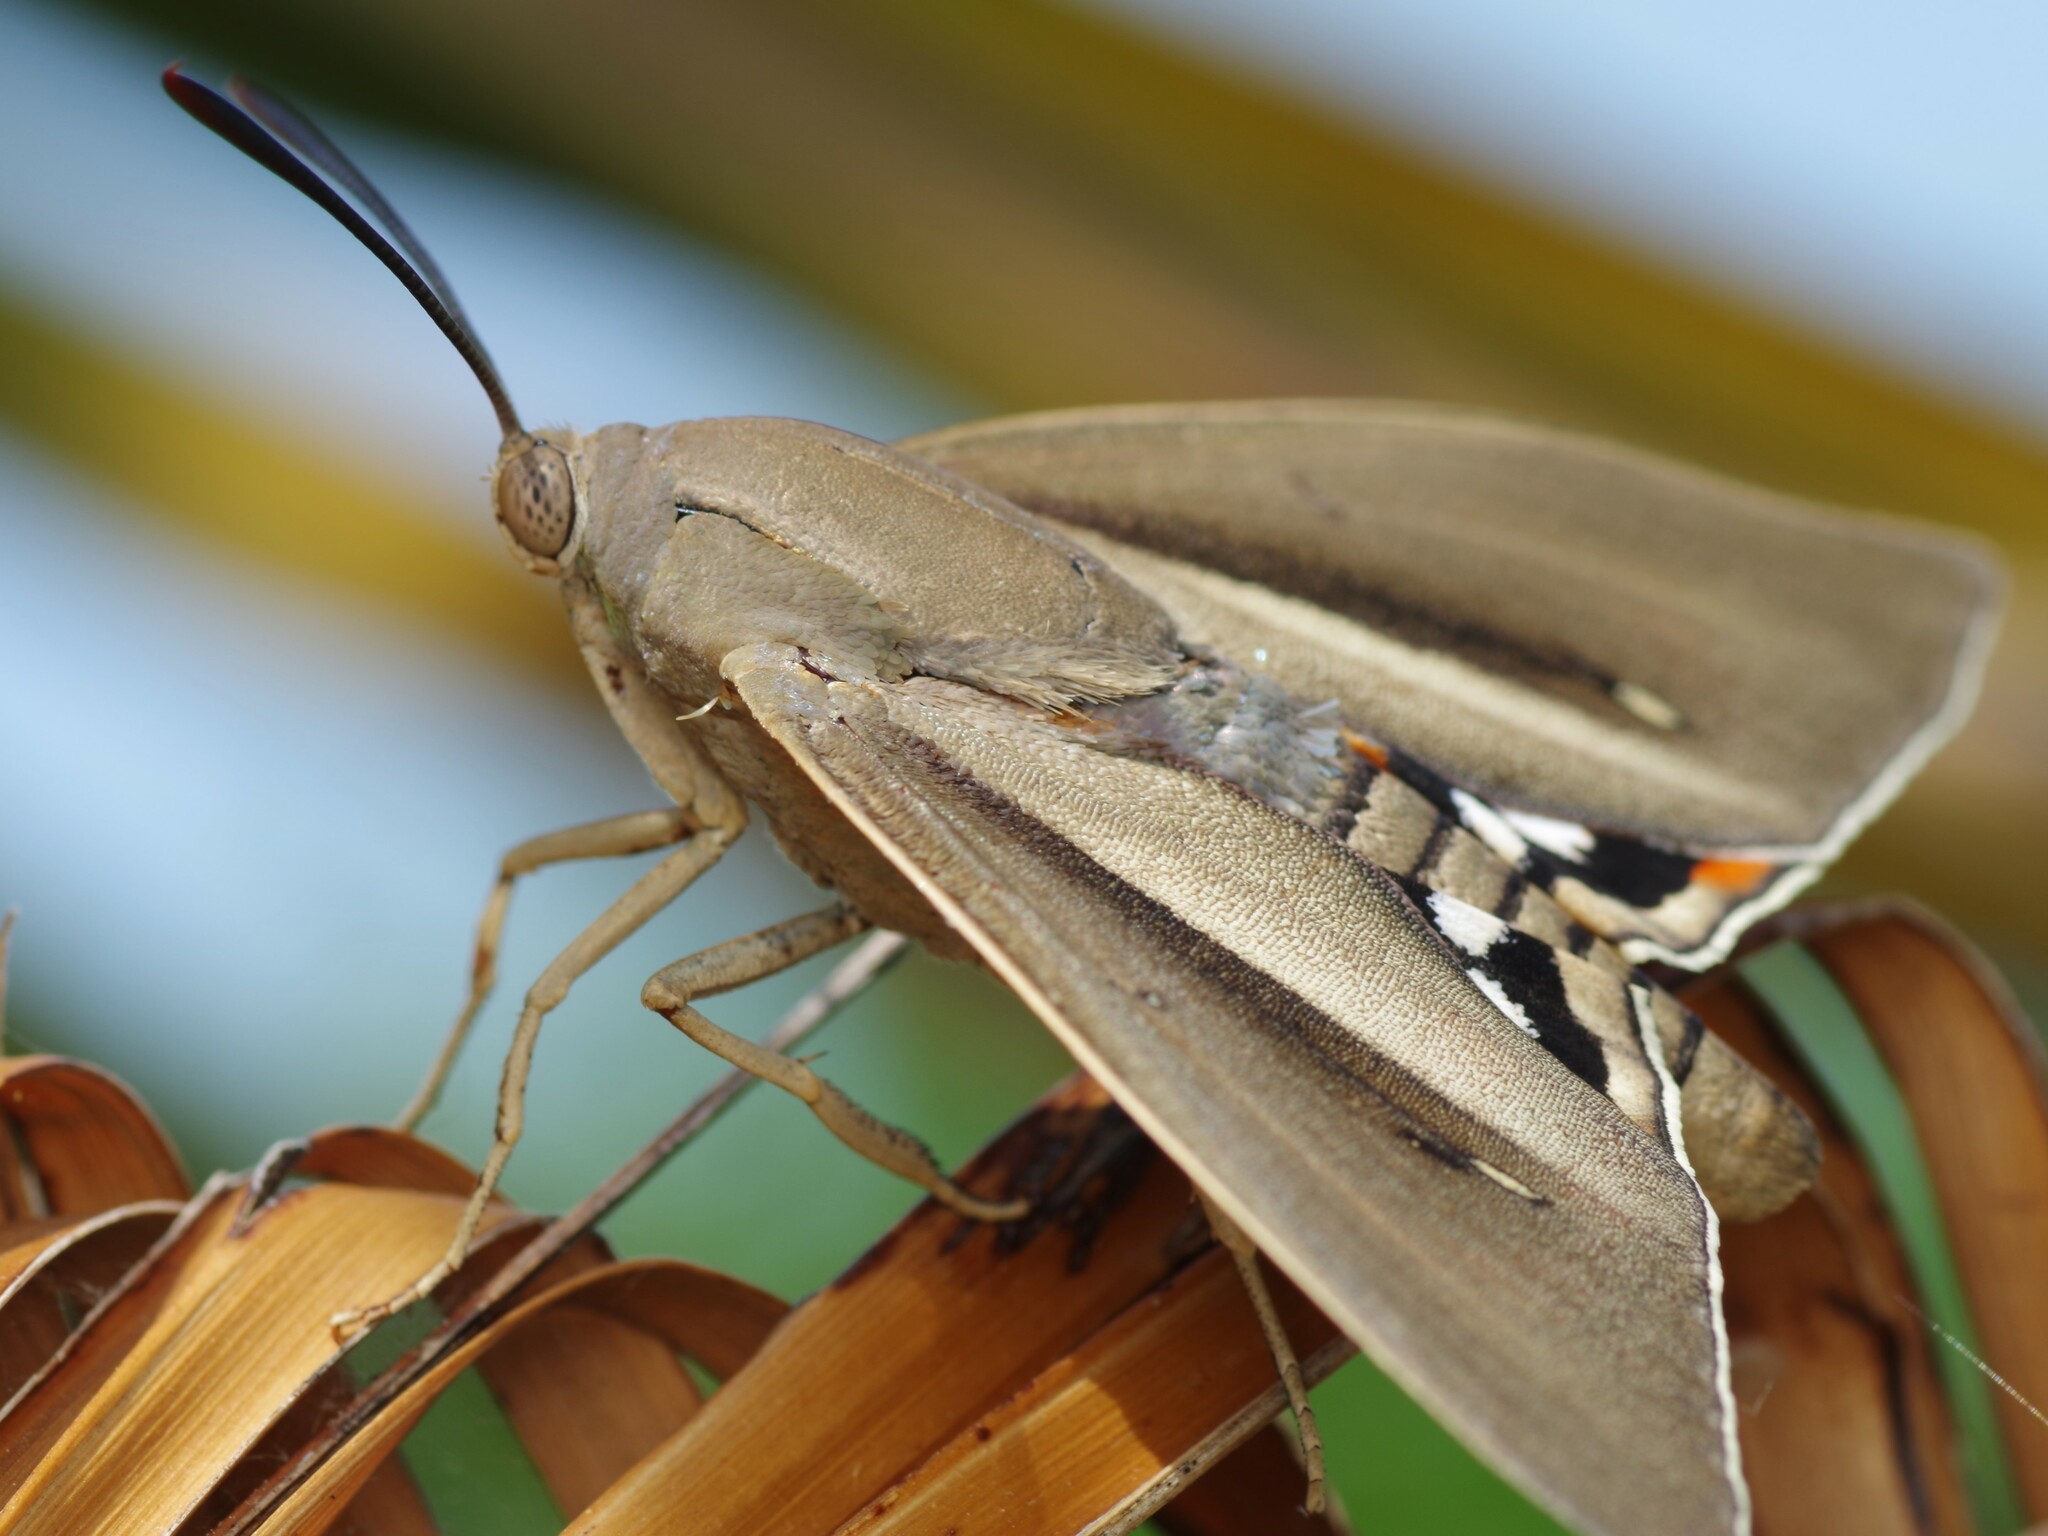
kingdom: Animalia
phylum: Arthropoda
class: Insecta
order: Lepidoptera
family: Castniidae
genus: Paysandisia
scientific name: Paysandisia archon
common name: Palm moth
